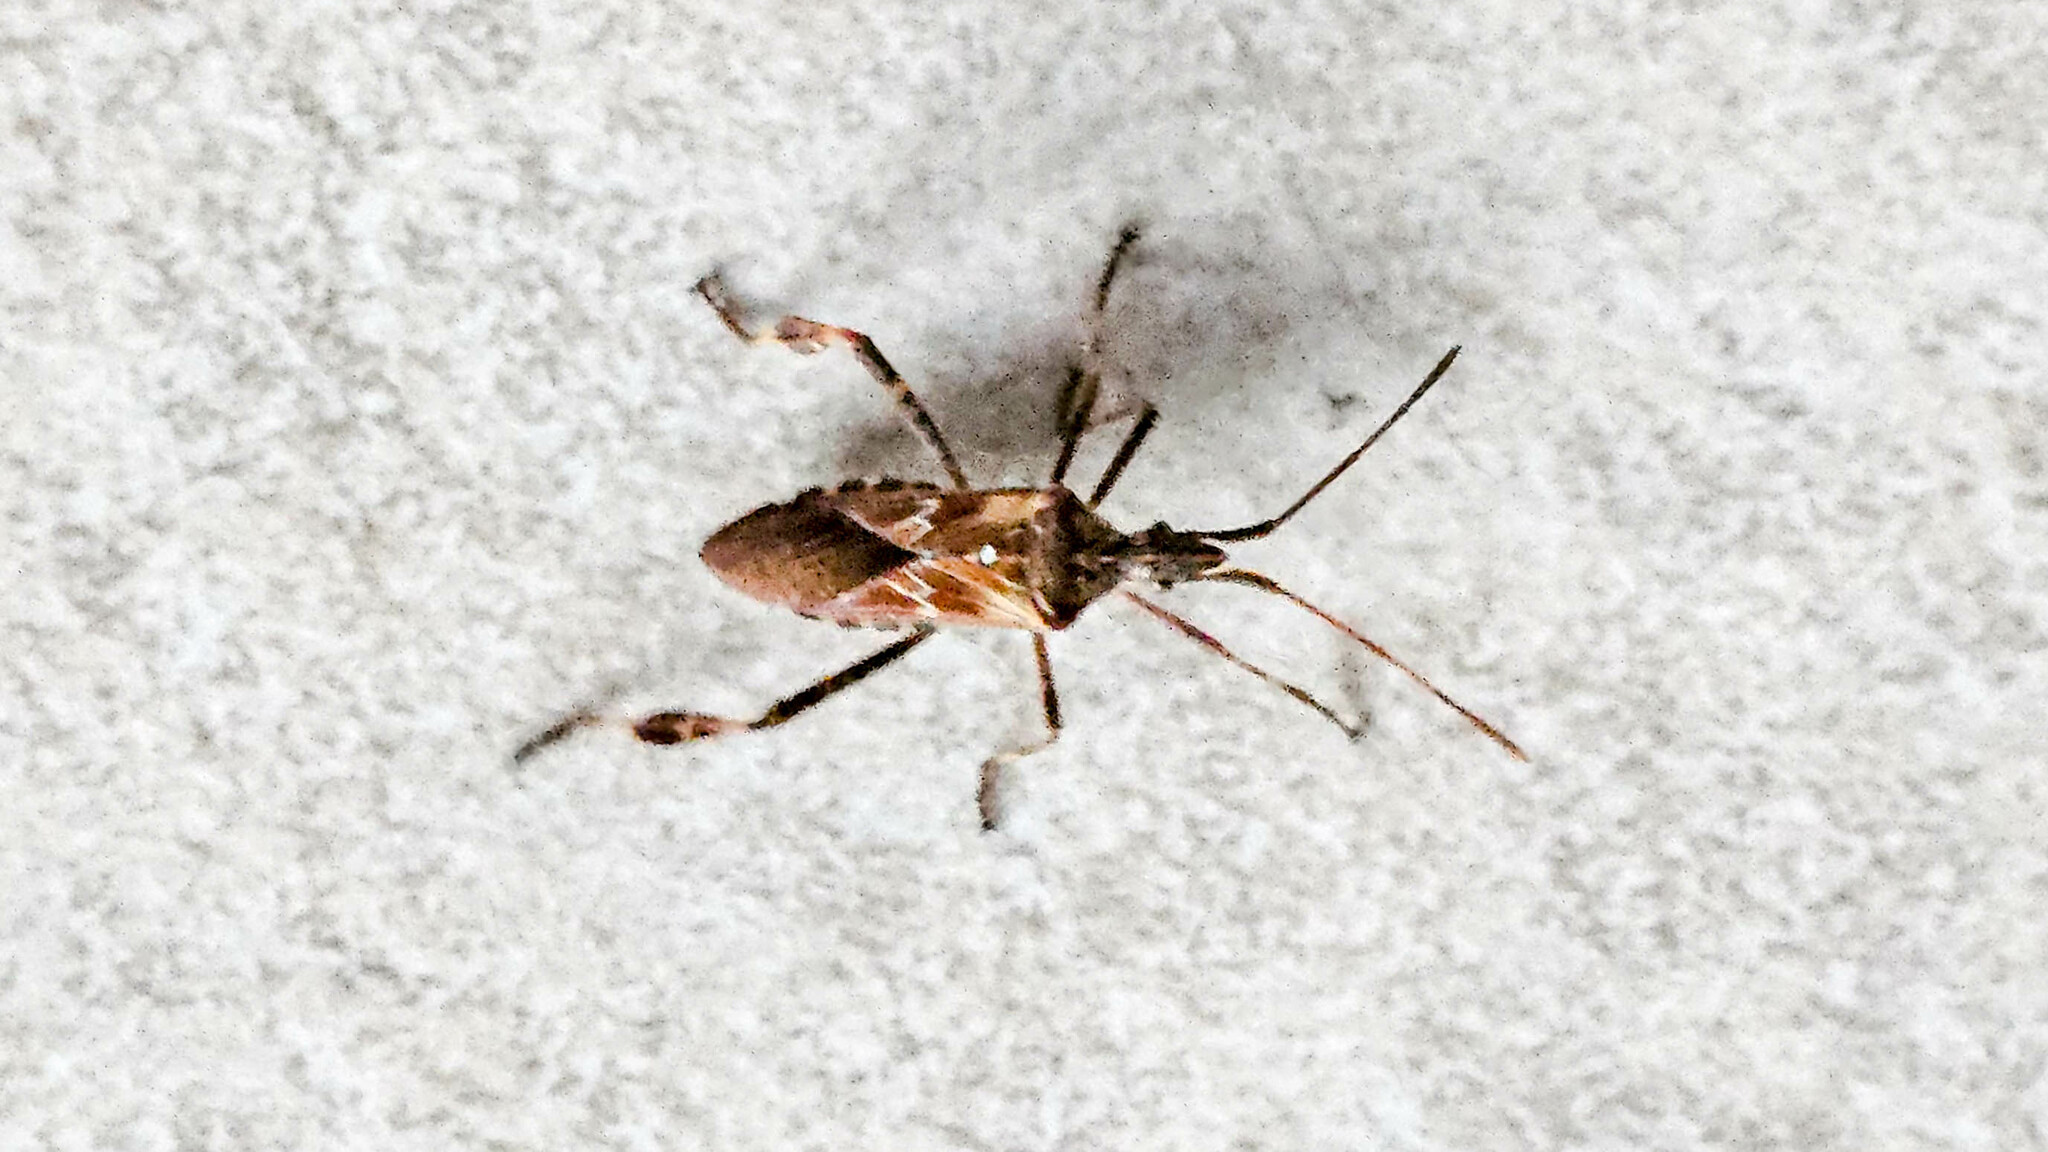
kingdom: Animalia
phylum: Arthropoda
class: Insecta
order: Hemiptera
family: Coreidae
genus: Leptoglossus
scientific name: Leptoglossus occidentalis
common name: Western conifer-seed bug
